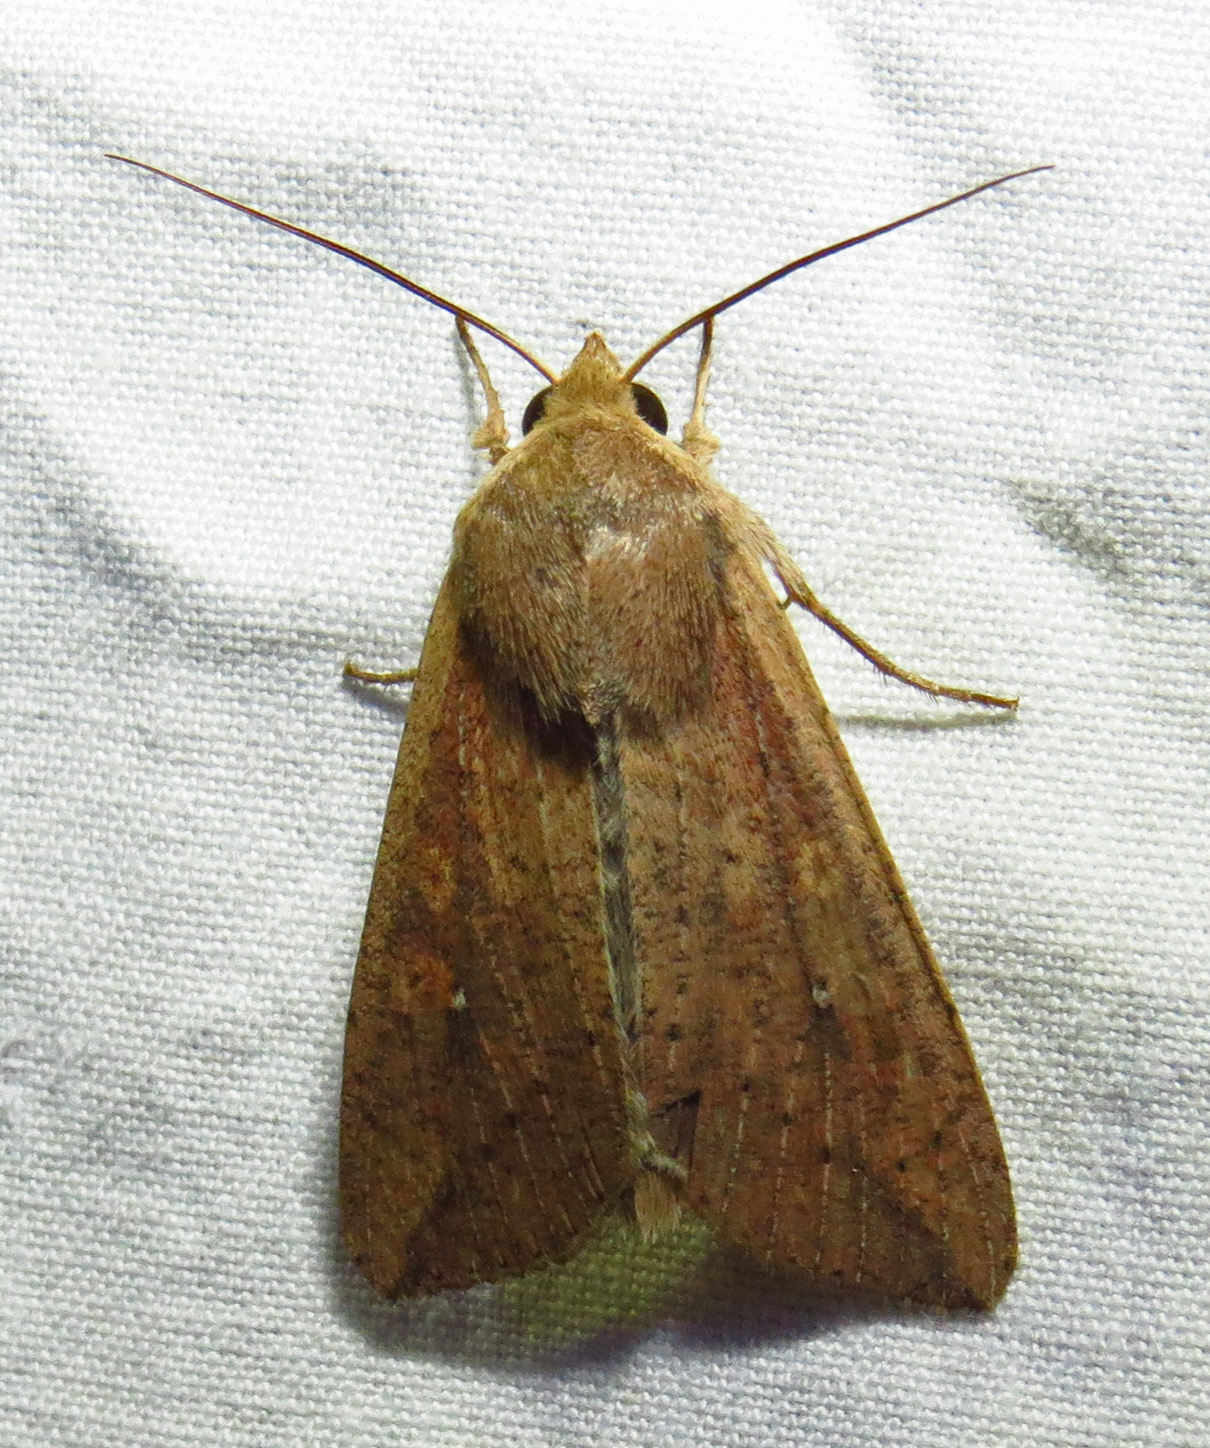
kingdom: Animalia
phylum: Arthropoda
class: Insecta
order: Lepidoptera
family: Noctuidae
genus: Mythimna
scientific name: Mythimna unipuncta
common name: White-speck
